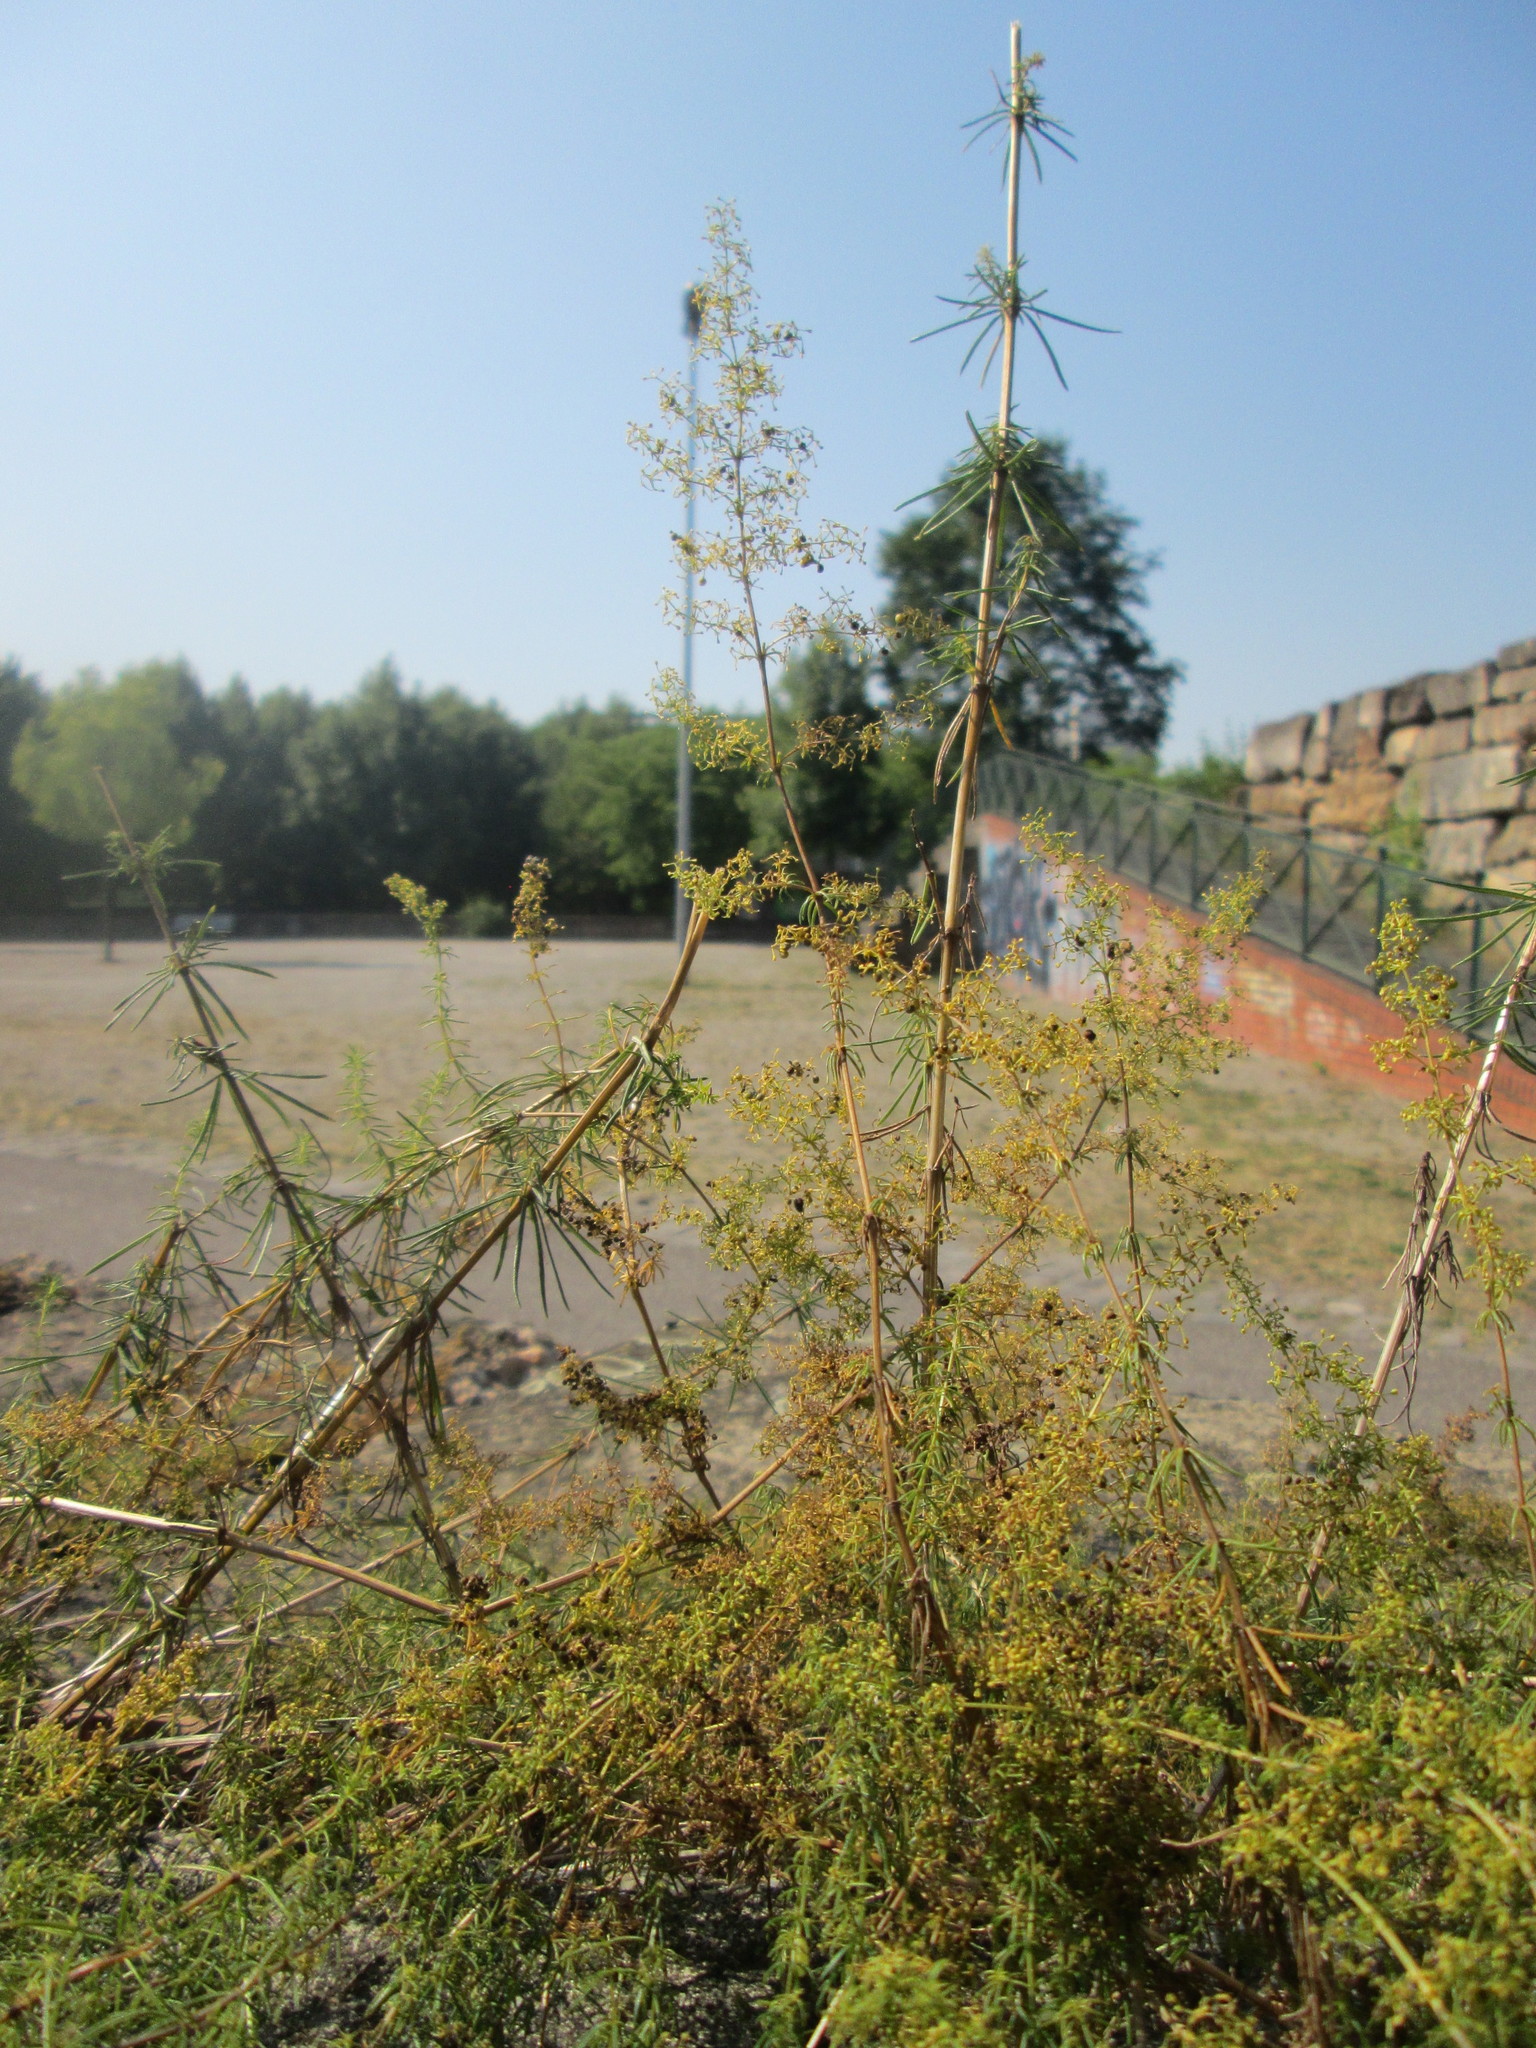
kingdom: Plantae
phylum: Tracheophyta
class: Magnoliopsida
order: Gentianales
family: Rubiaceae
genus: Galium
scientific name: Galium verum
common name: Lady's bedstraw
